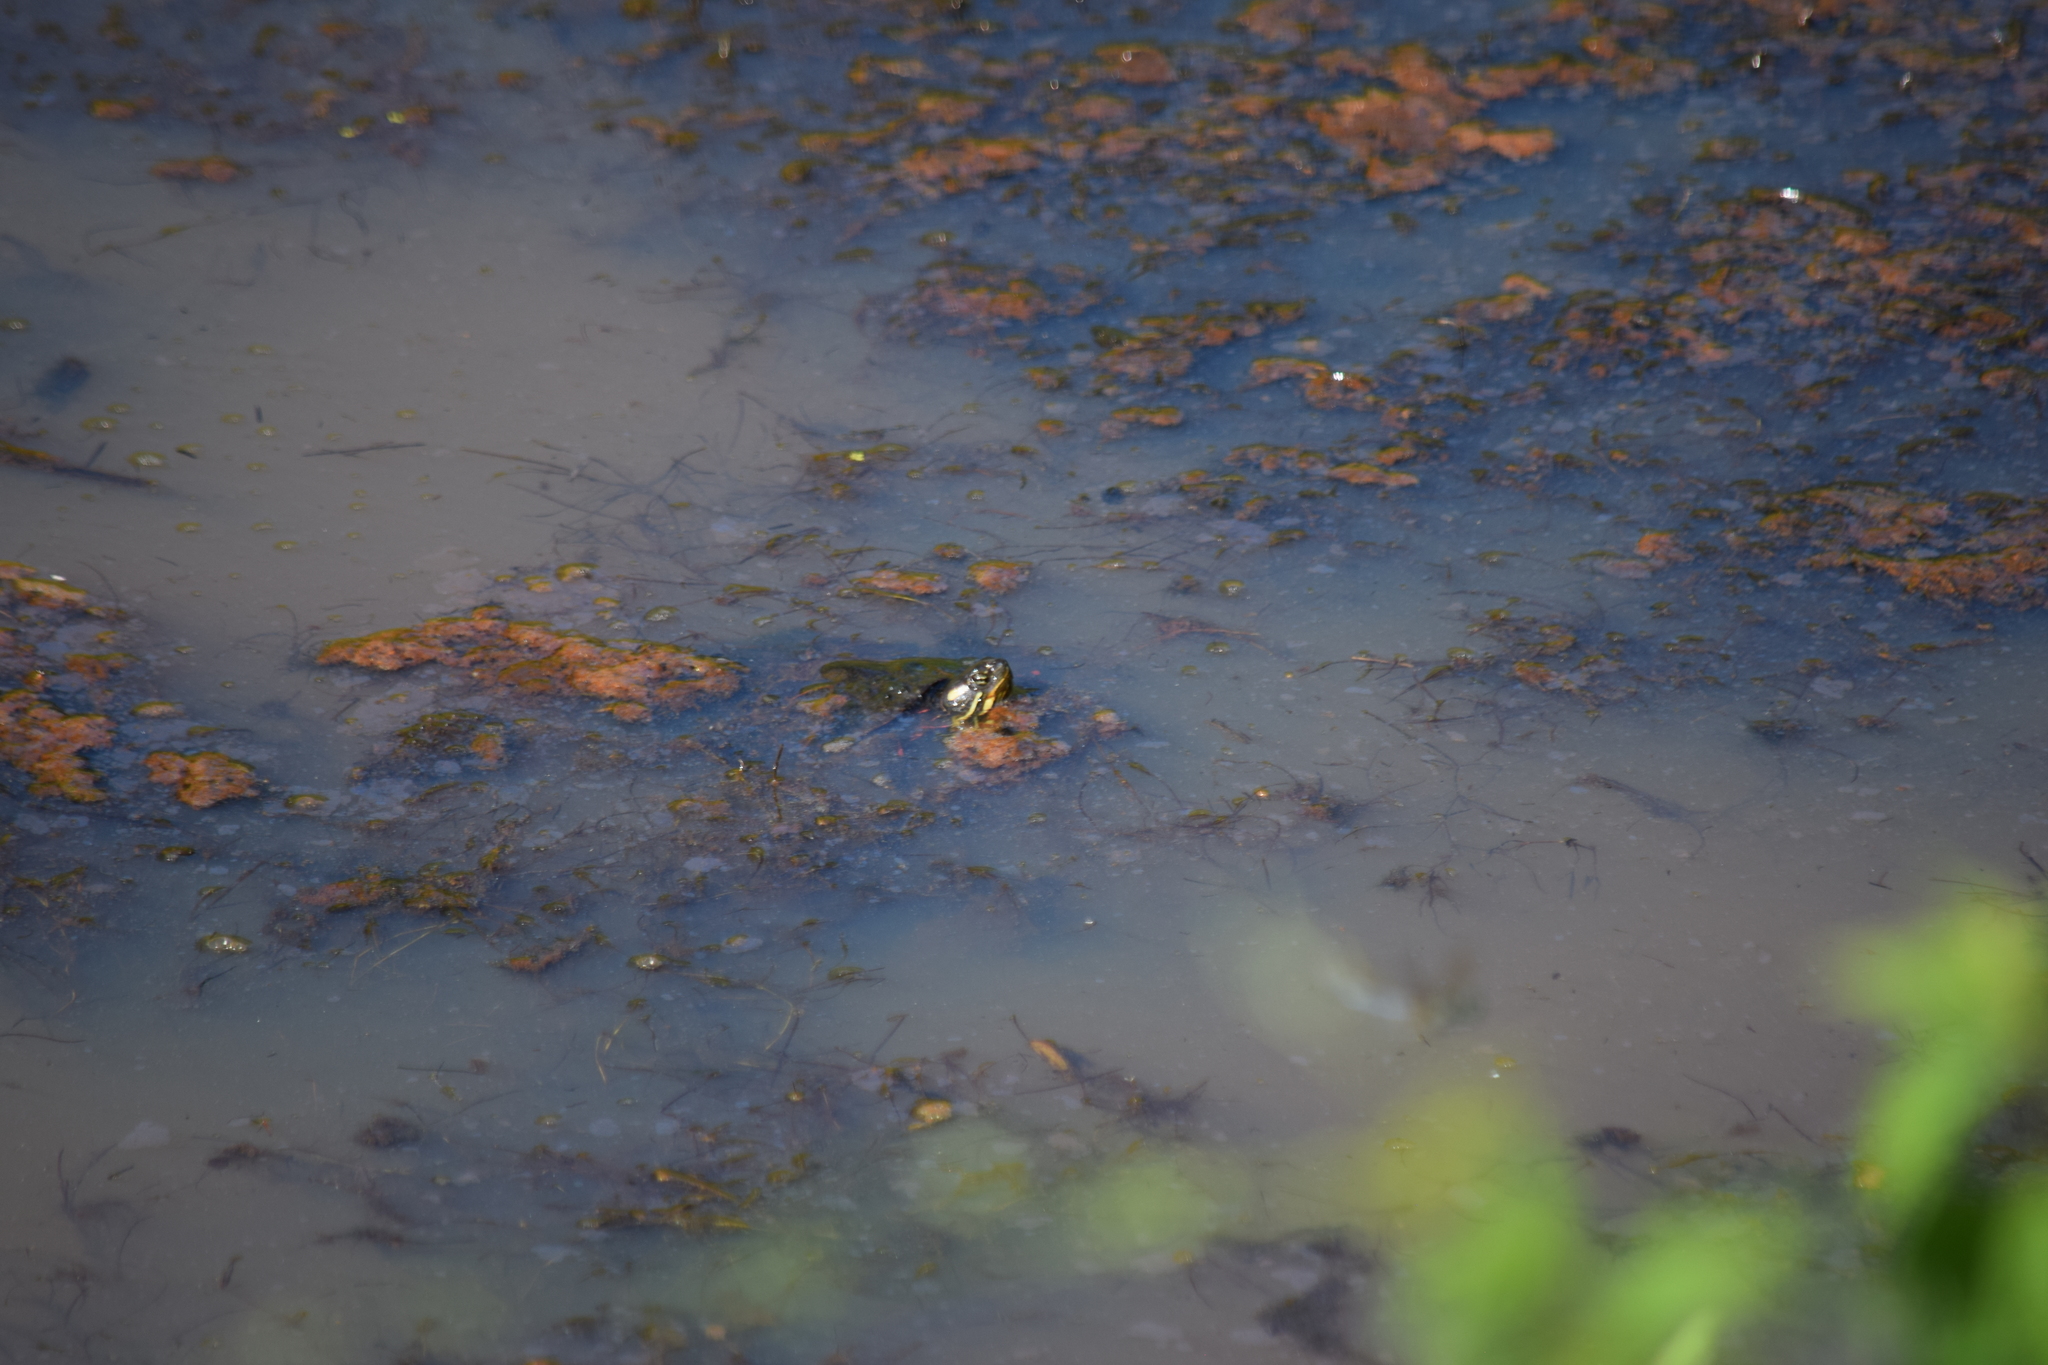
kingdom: Animalia
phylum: Chordata
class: Testudines
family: Emydidae
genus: Chrysemys
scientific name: Chrysemys picta
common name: Painted turtle
